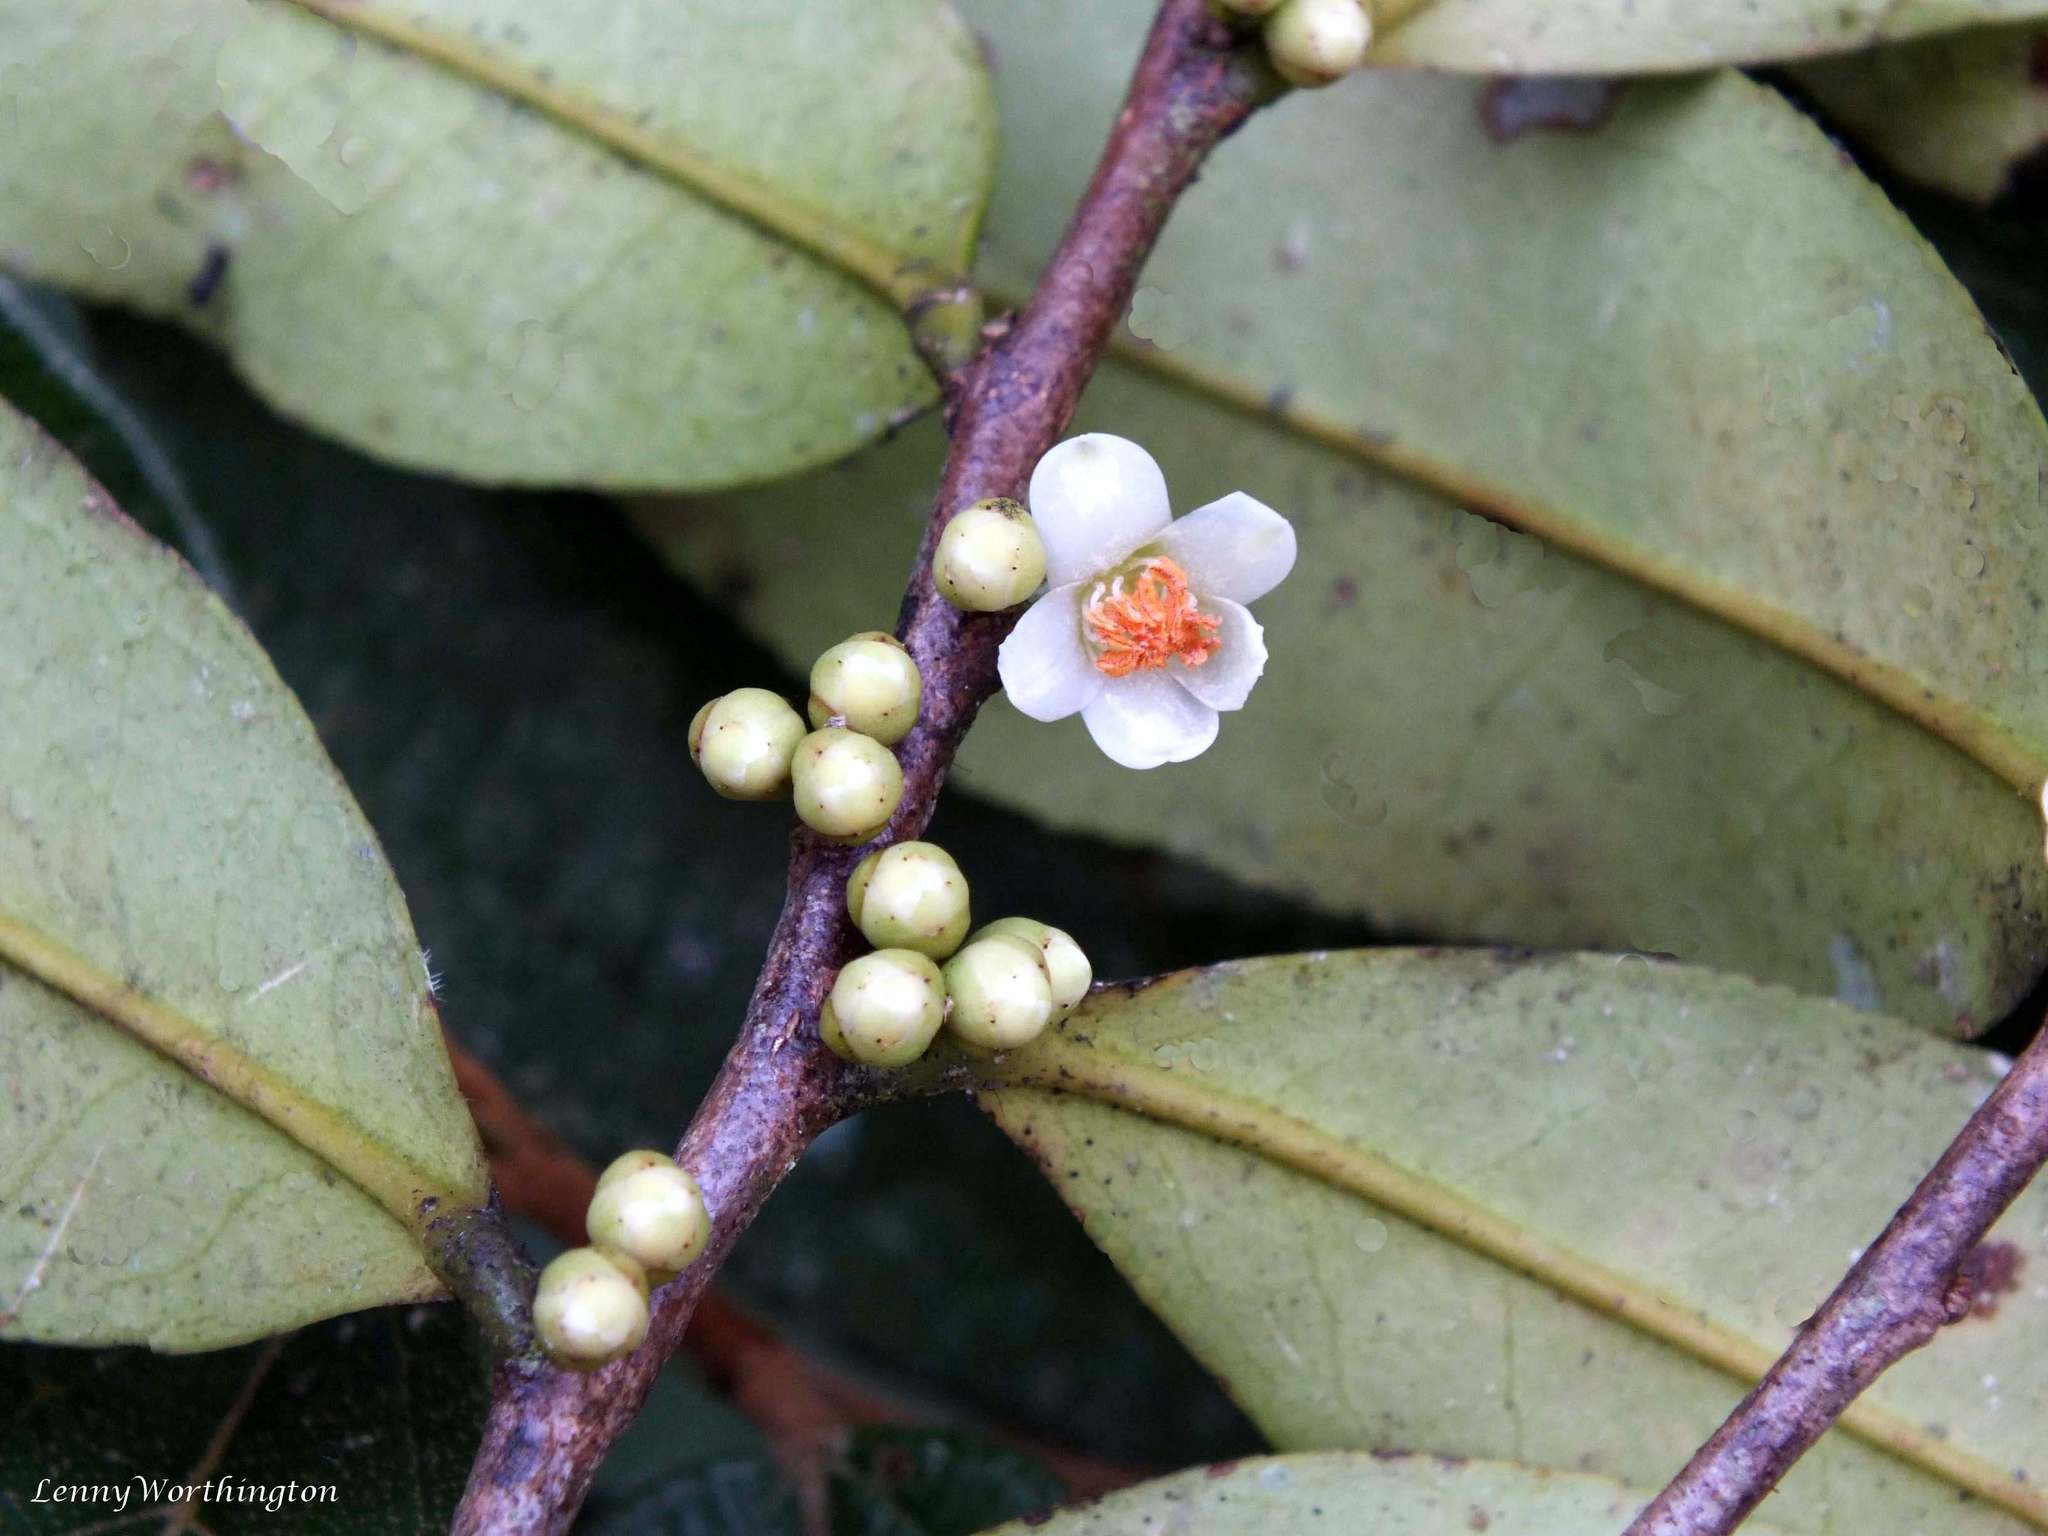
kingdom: Plantae
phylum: Tracheophyta
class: Magnoliopsida
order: Ericales
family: Pentaphylacaceae
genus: Eurya
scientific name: Eurya nitida
